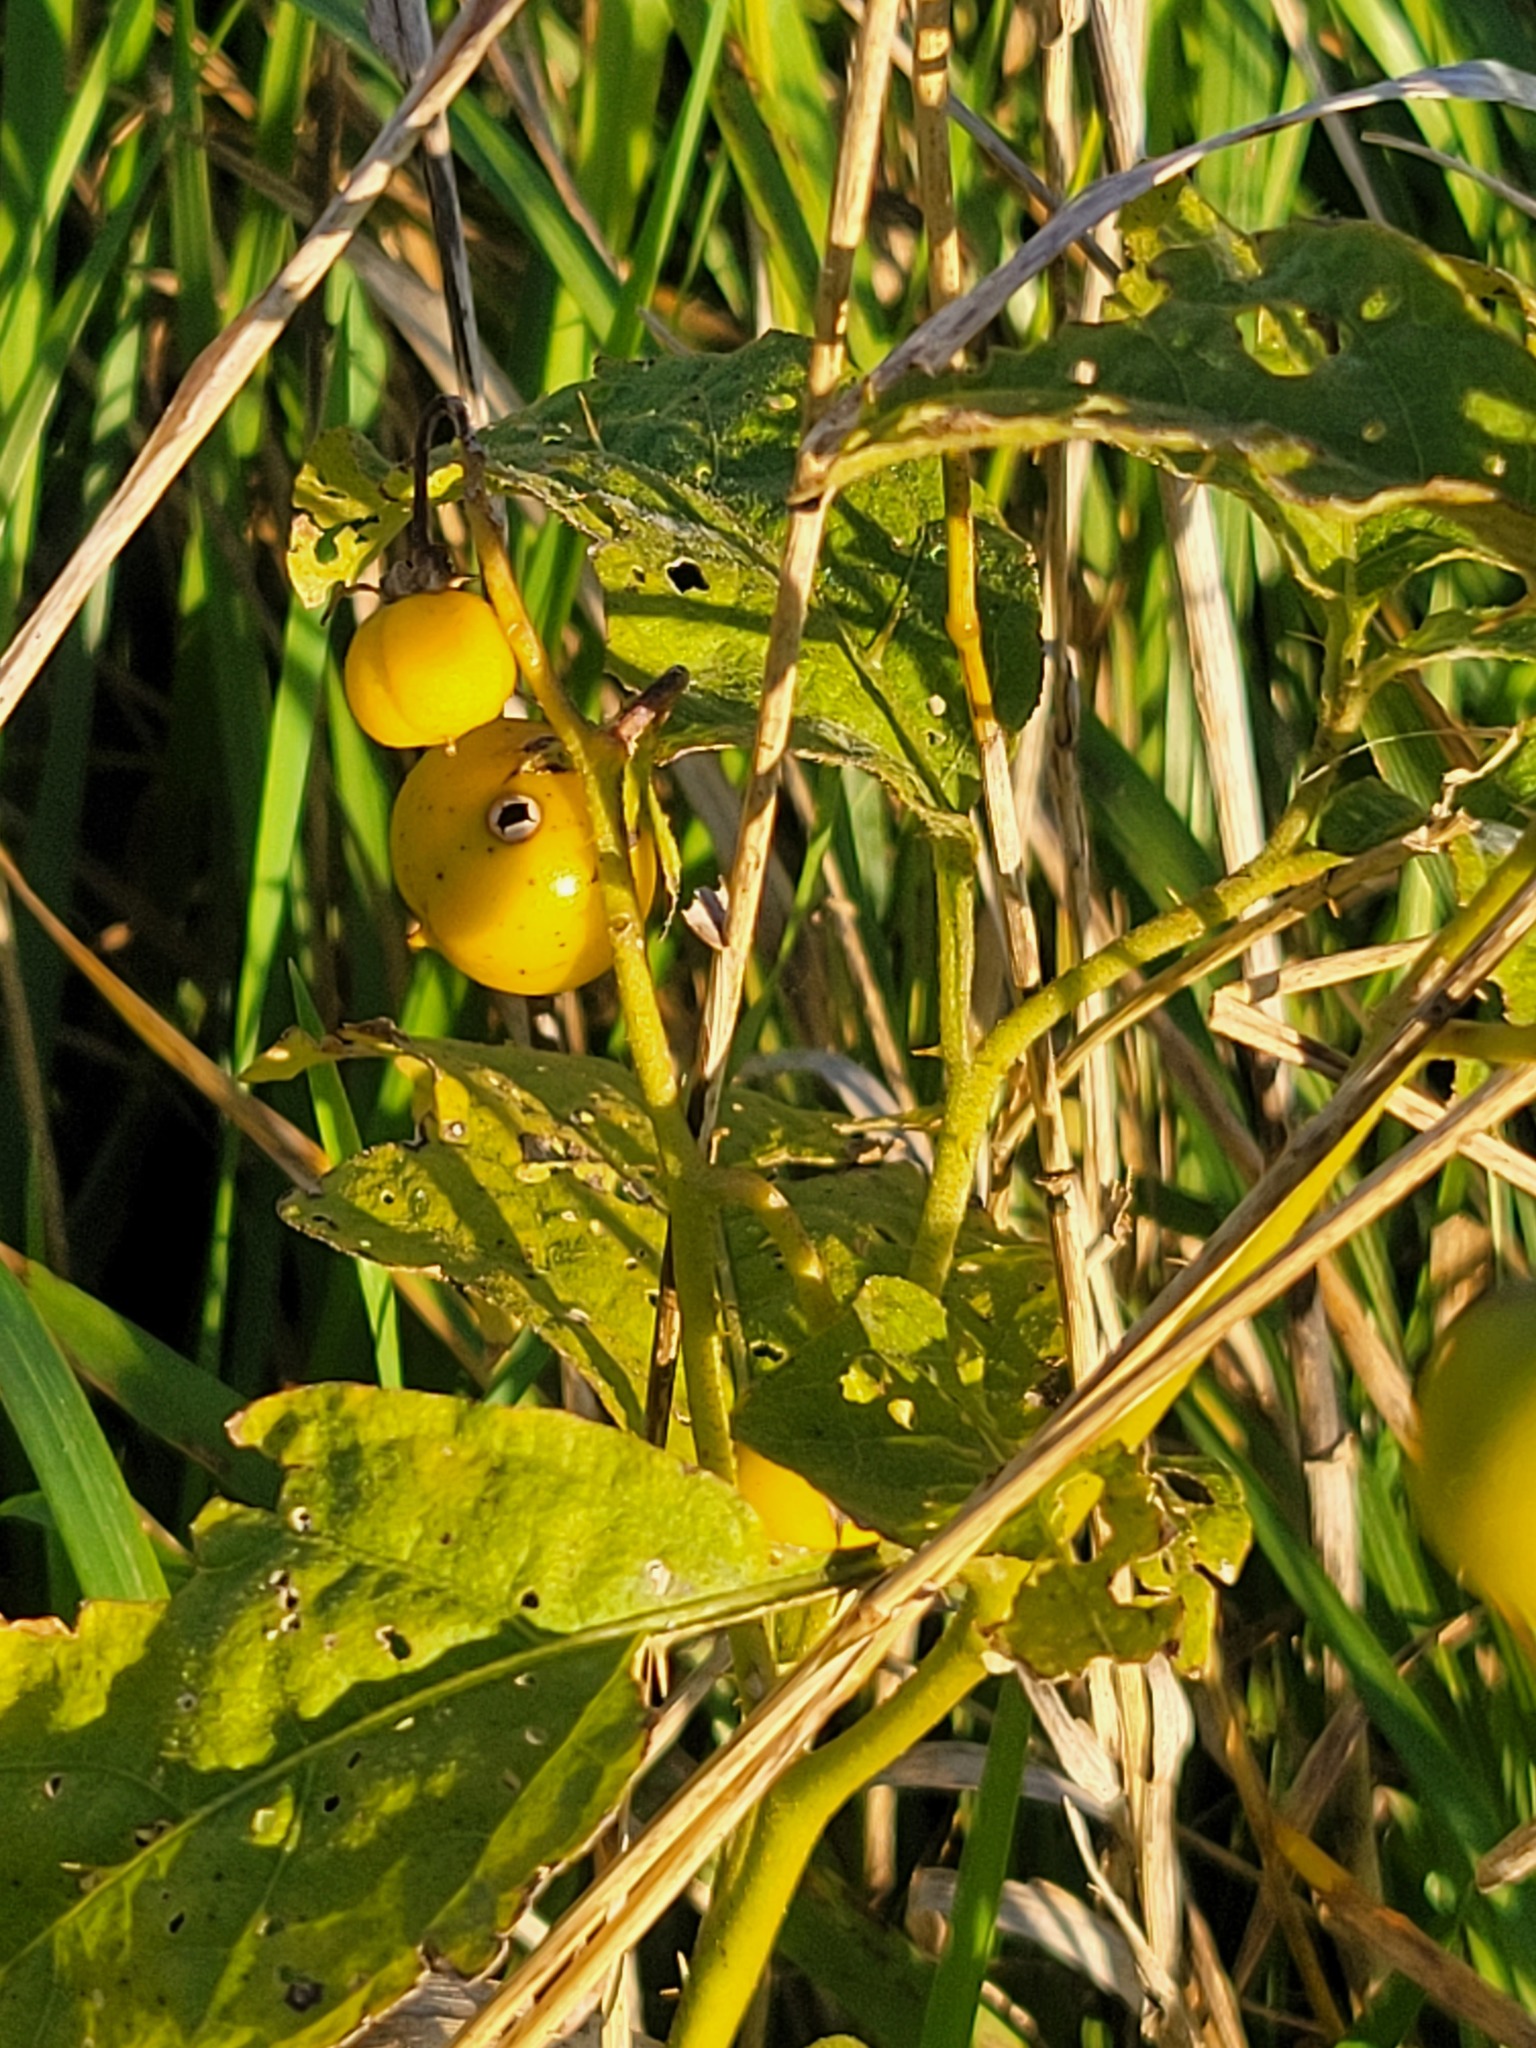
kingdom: Plantae
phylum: Tracheophyta
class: Magnoliopsida
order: Solanales
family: Solanaceae
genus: Solanum
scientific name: Solanum carolinense
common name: Horse-nettle
